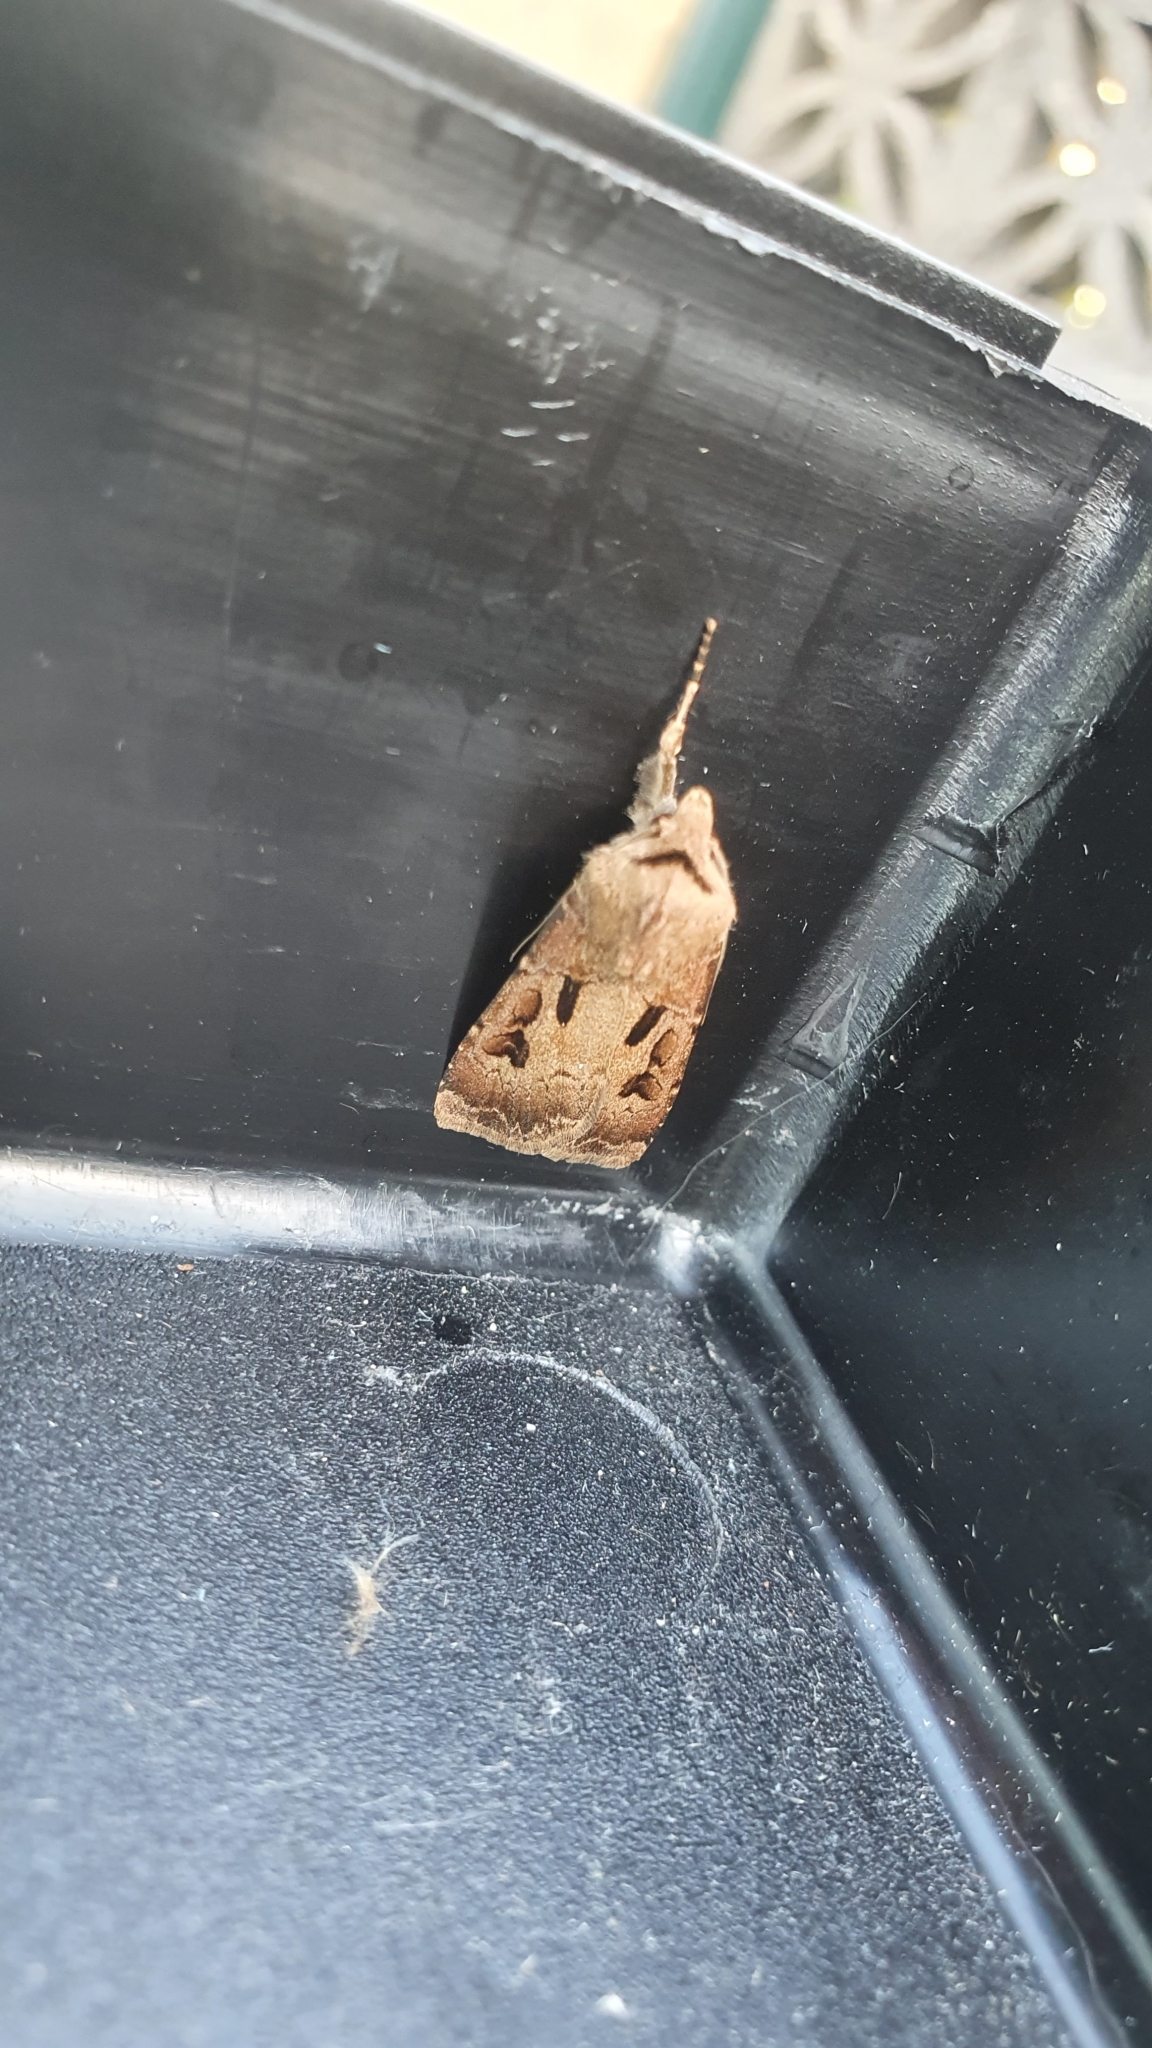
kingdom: Animalia
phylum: Arthropoda
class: Insecta
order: Lepidoptera
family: Noctuidae
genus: Agrotis
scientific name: Agrotis exclamationis
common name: Heart and dart
